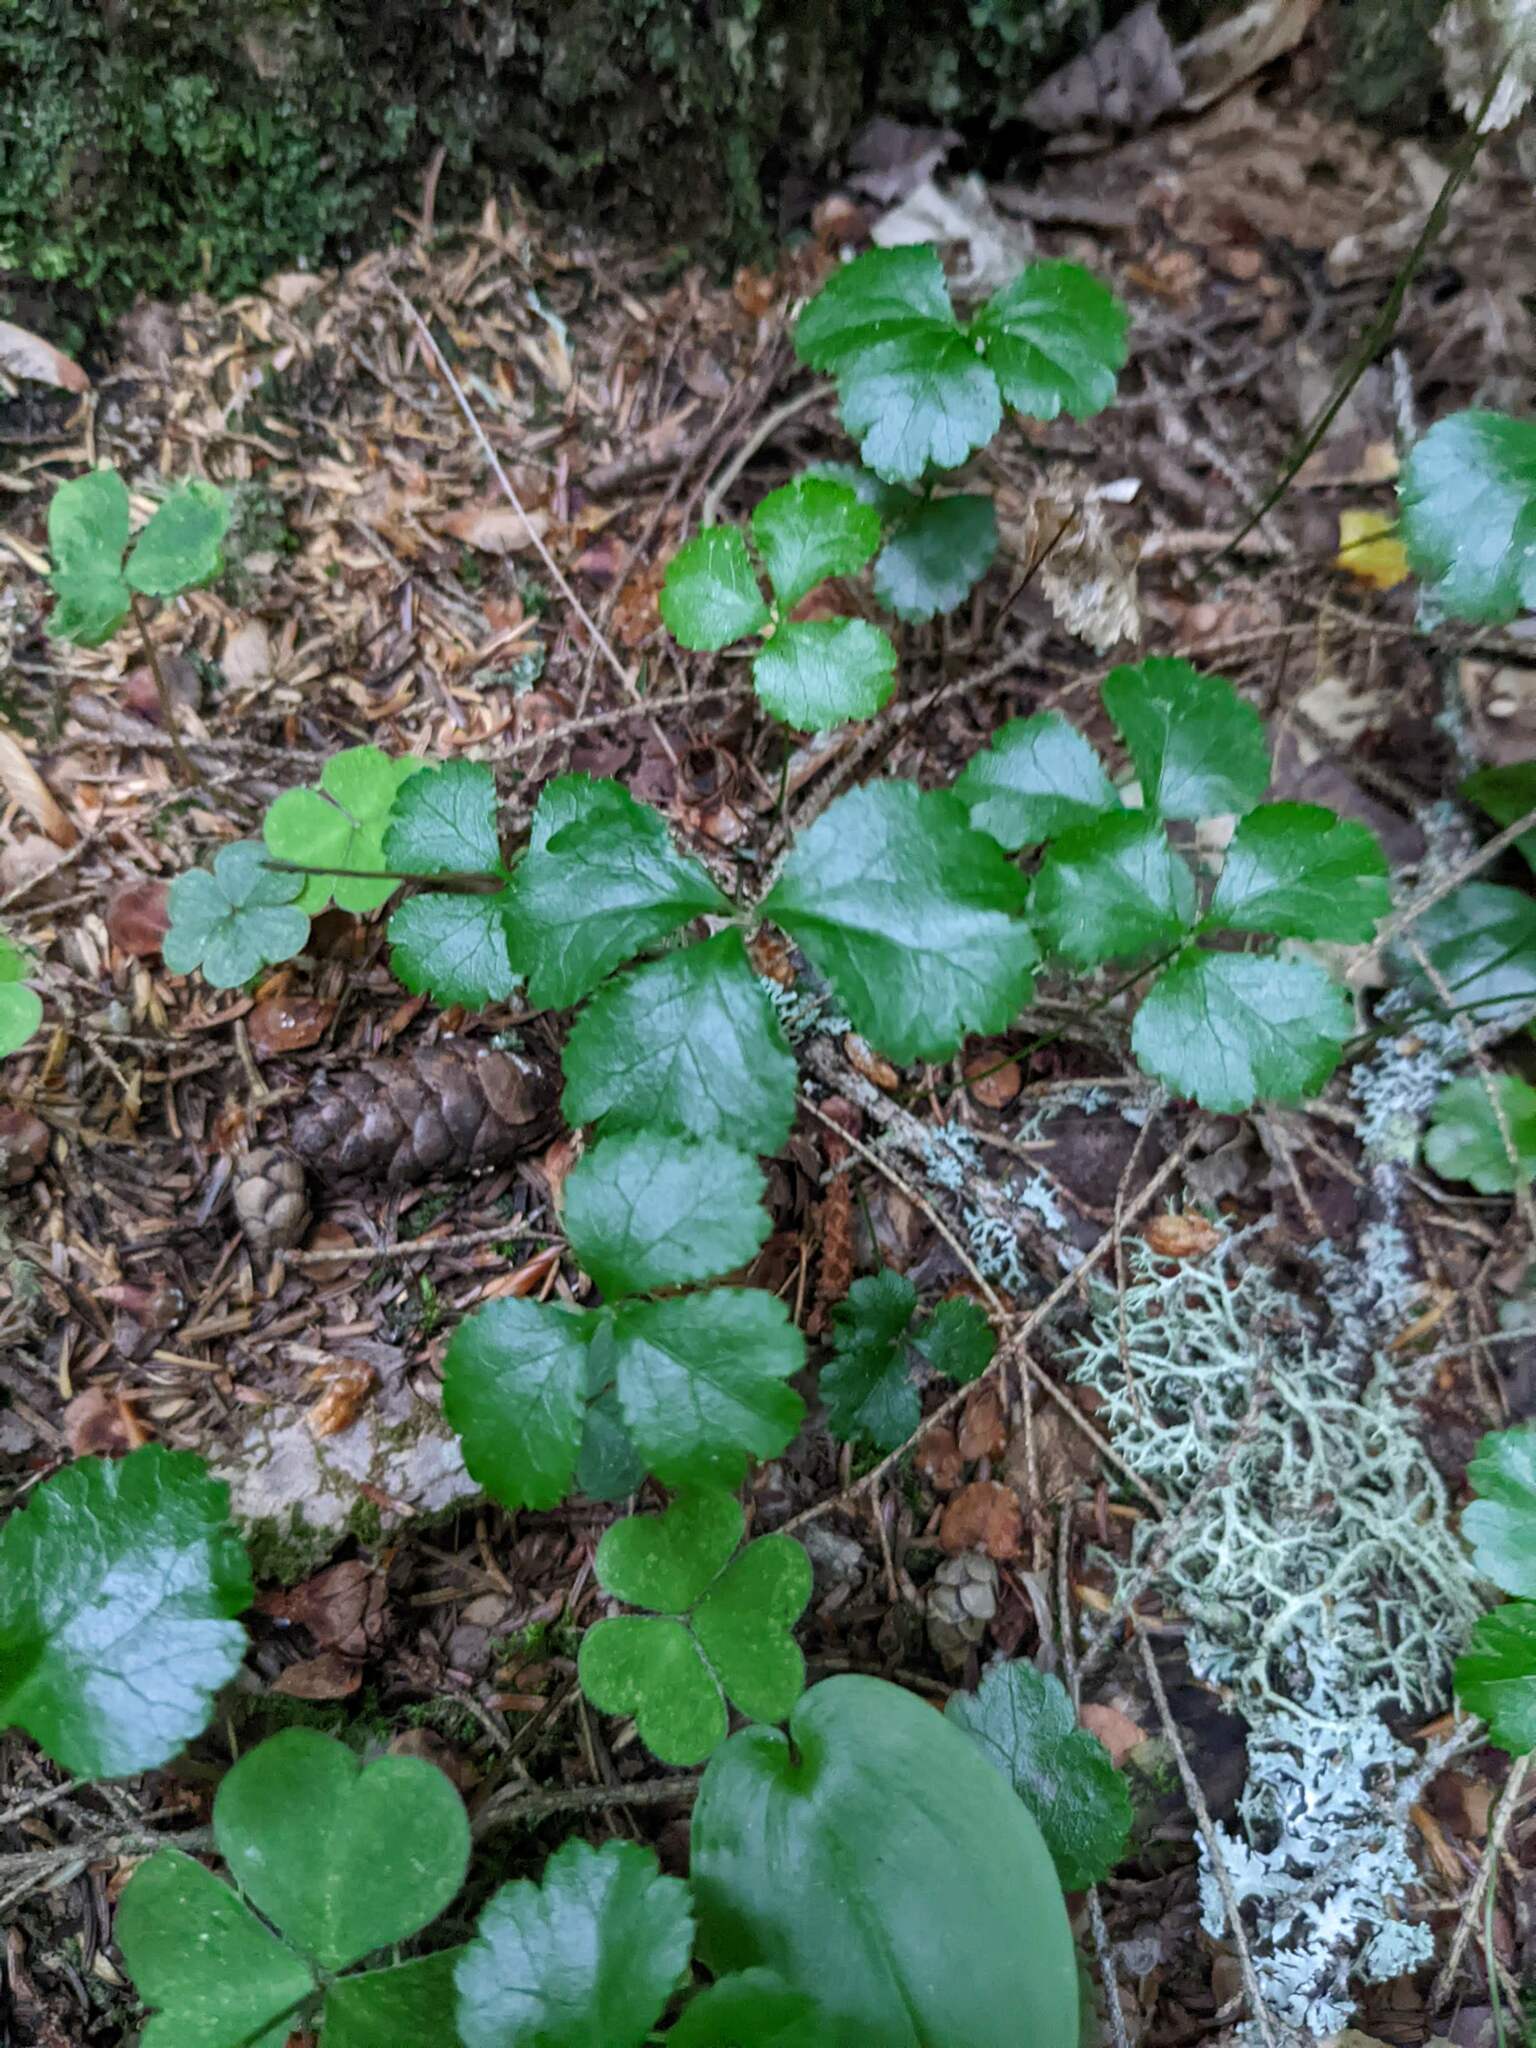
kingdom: Plantae
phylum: Tracheophyta
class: Magnoliopsida
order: Ranunculales
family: Ranunculaceae
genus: Coptis
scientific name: Coptis trifolia
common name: Canker-root
